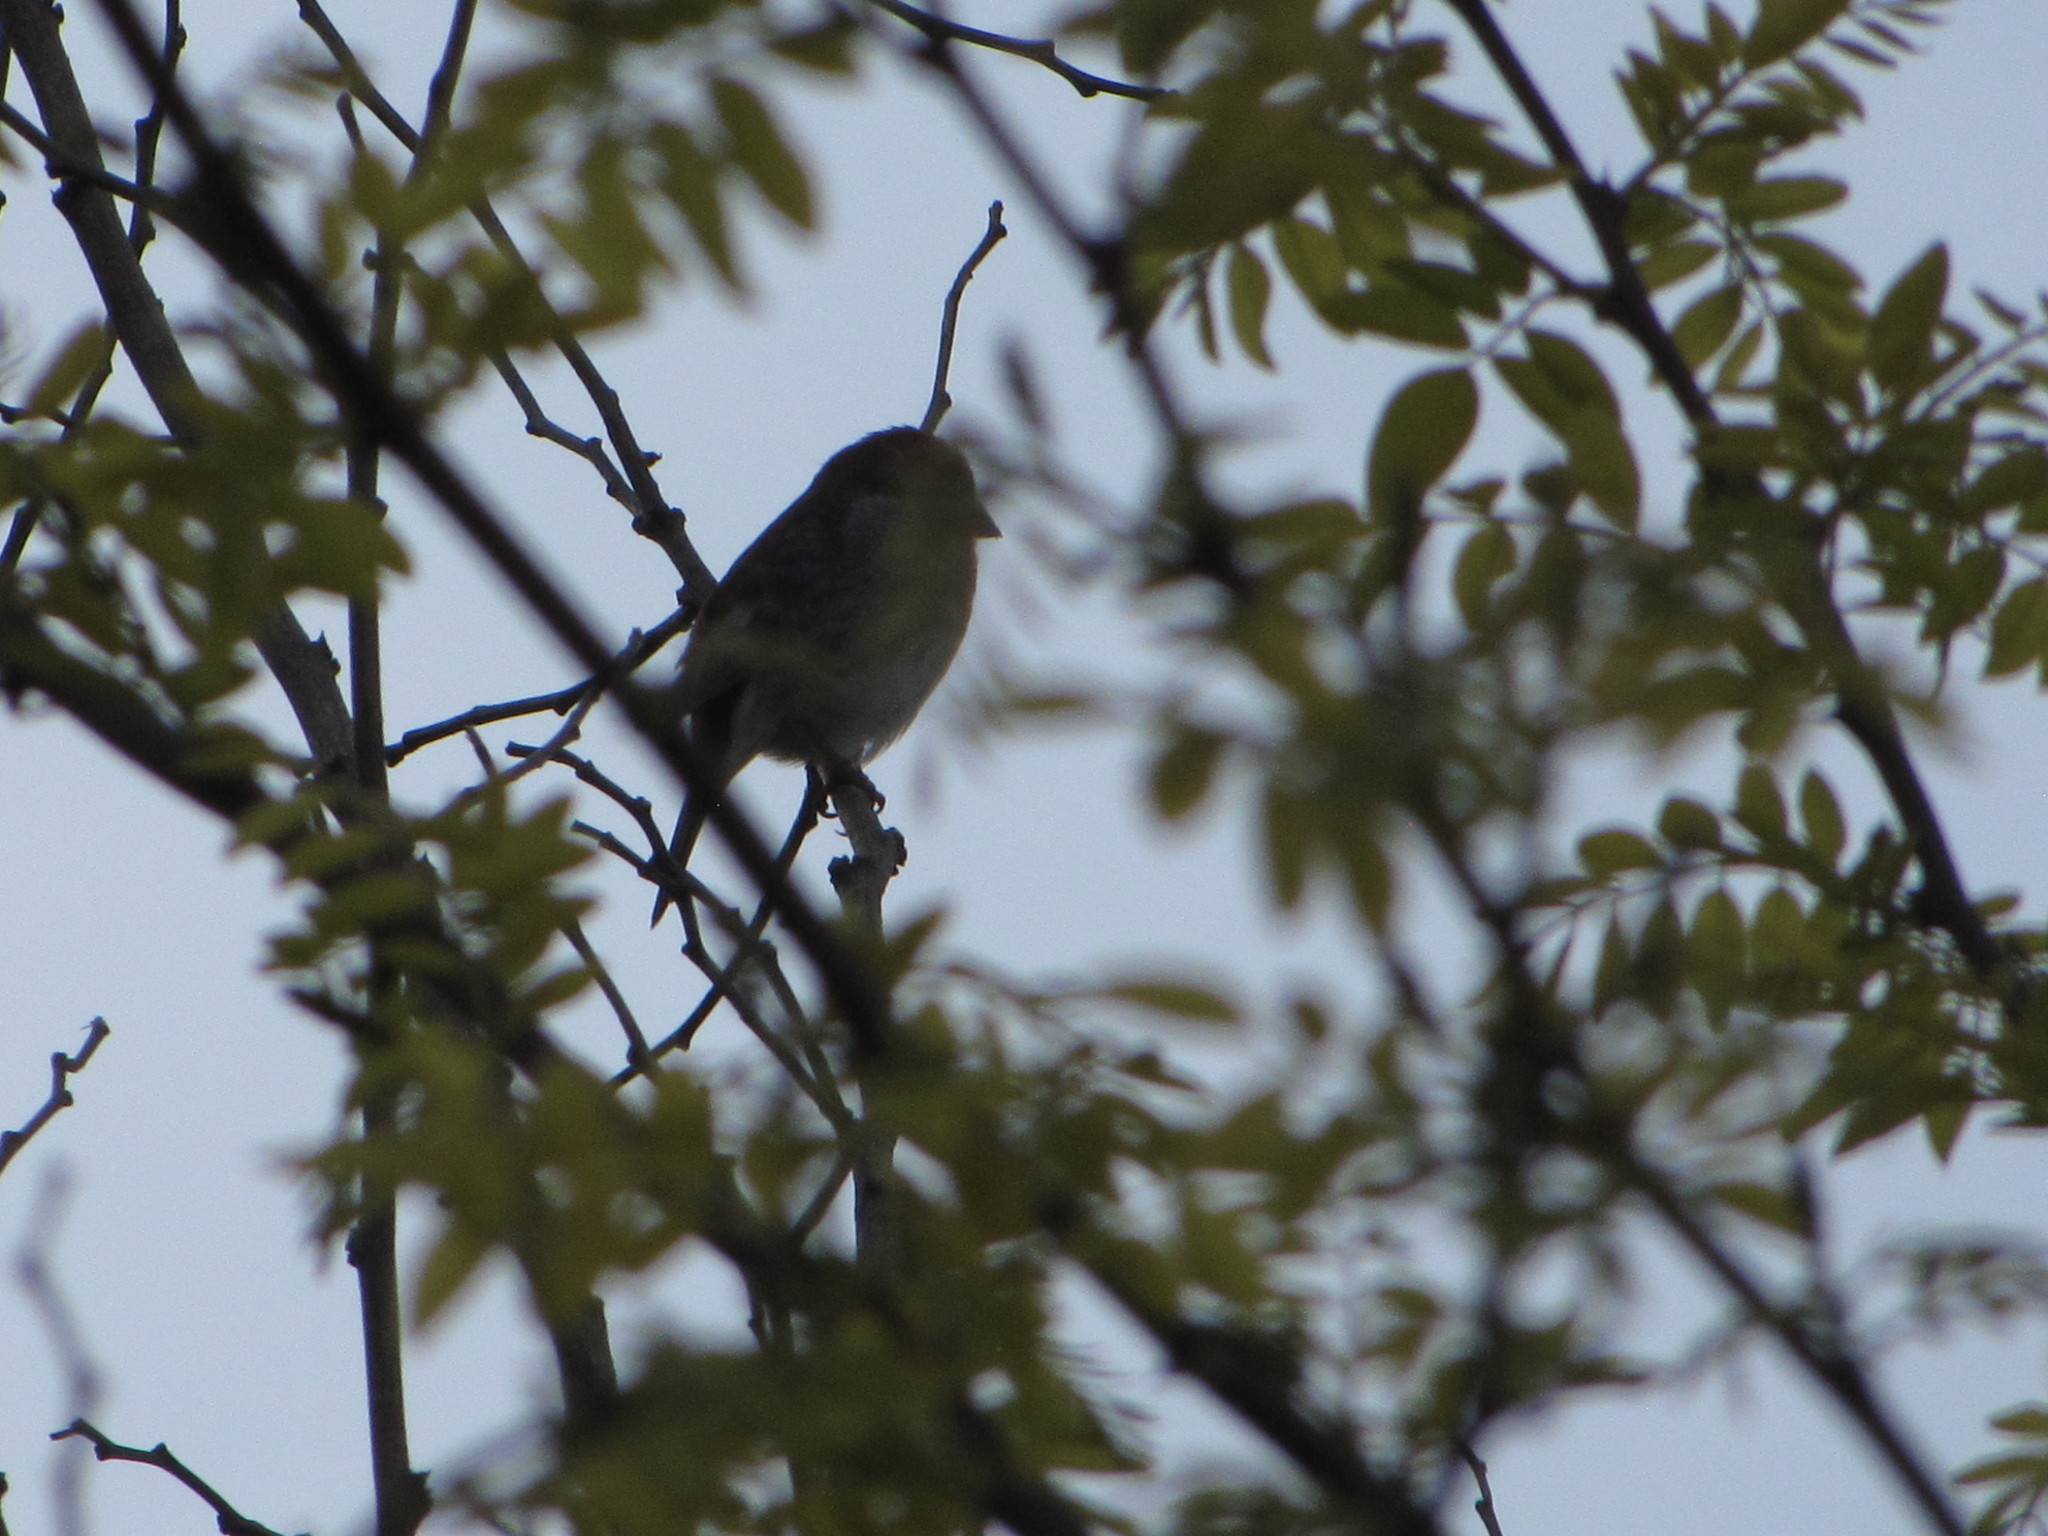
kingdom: Animalia
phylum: Chordata
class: Aves
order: Passeriformes
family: Fringillidae
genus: Haemorhous
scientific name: Haemorhous mexicanus
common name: House finch
